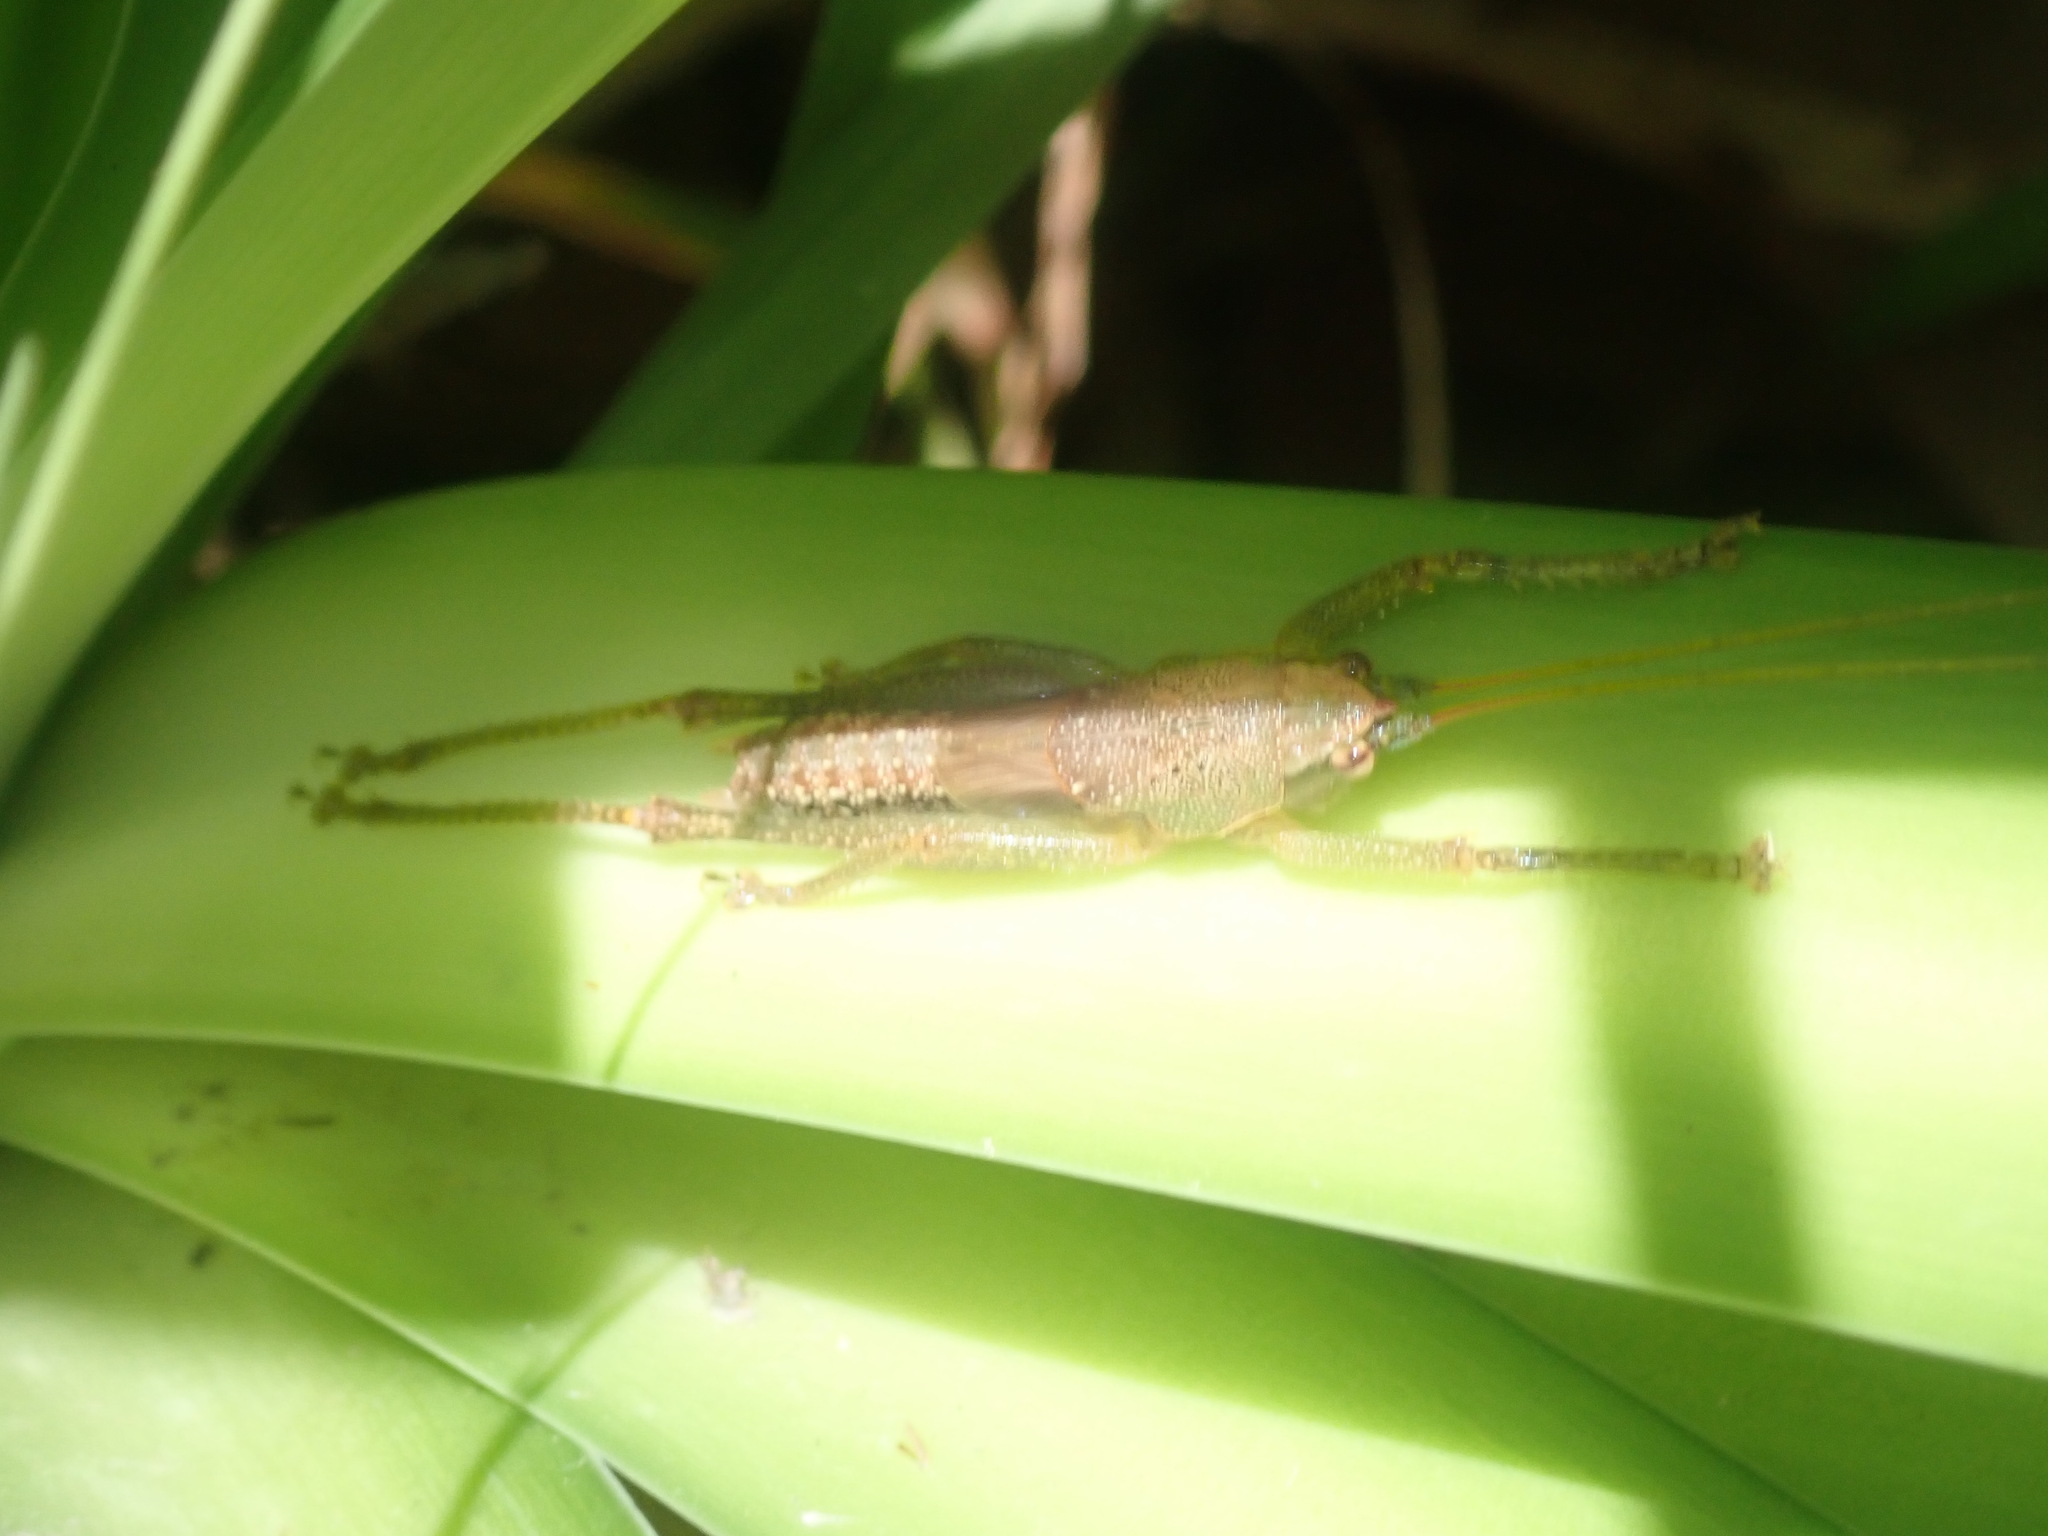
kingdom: Animalia
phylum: Arthropoda
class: Insecta
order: Orthoptera
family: Tettigoniidae
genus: Austrosalomona
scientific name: Austrosalomona falcata
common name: Olive-green coastal katydid
